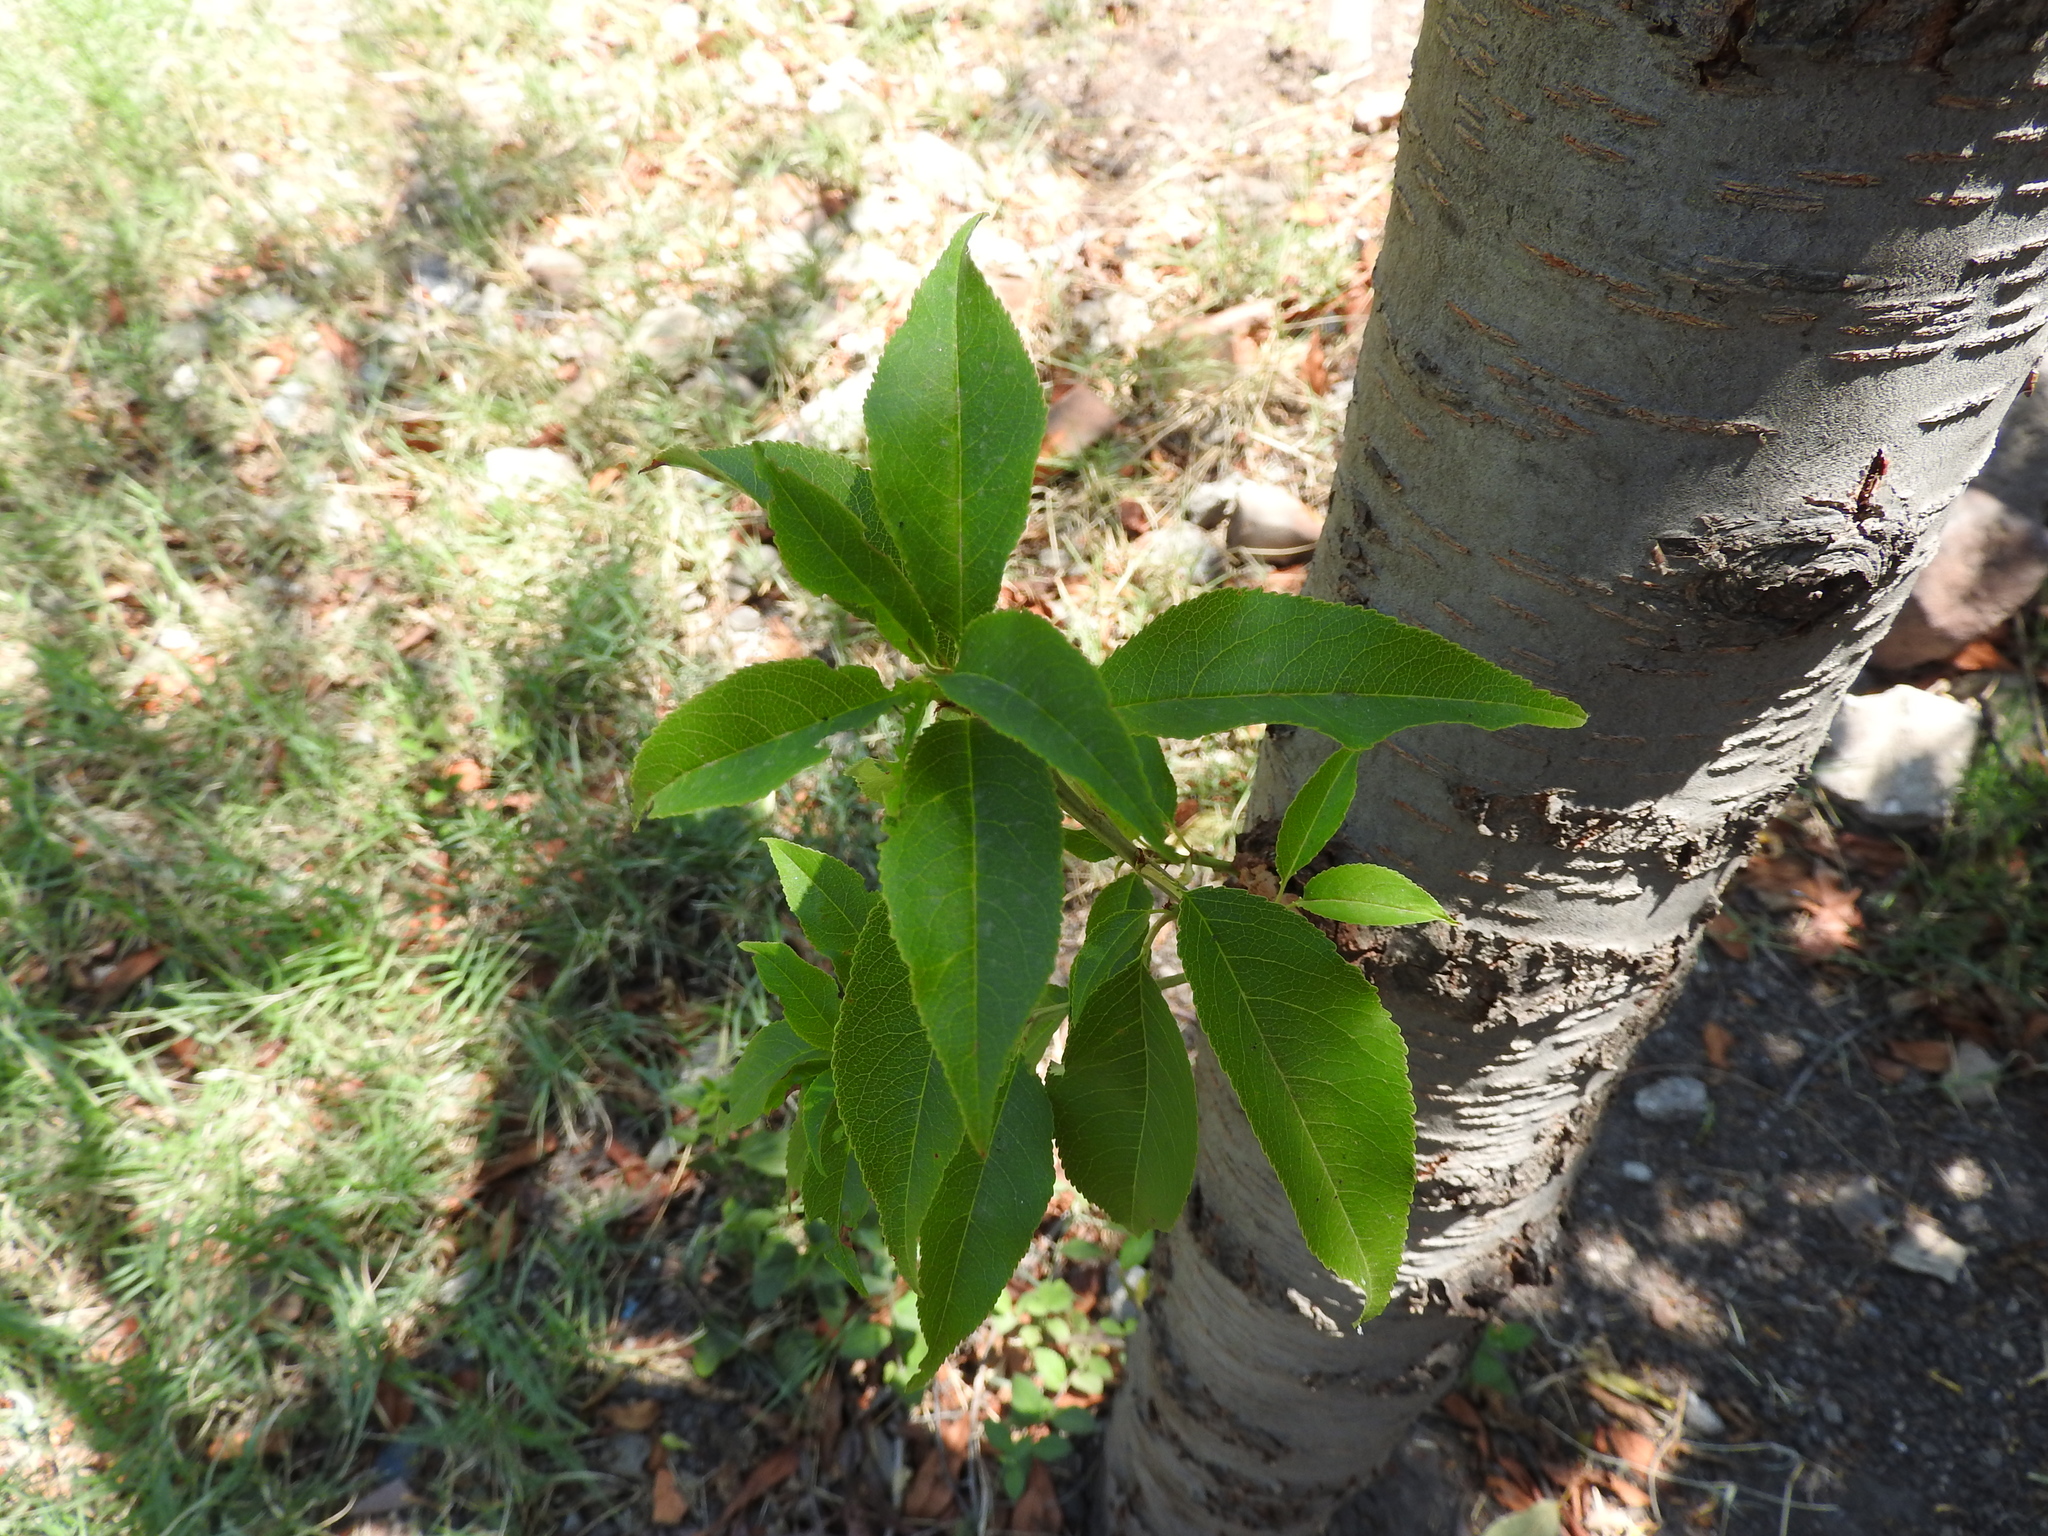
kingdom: Plantae
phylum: Tracheophyta
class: Magnoliopsida
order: Rosales
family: Rosaceae
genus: Prunus
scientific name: Prunus amygdalus
